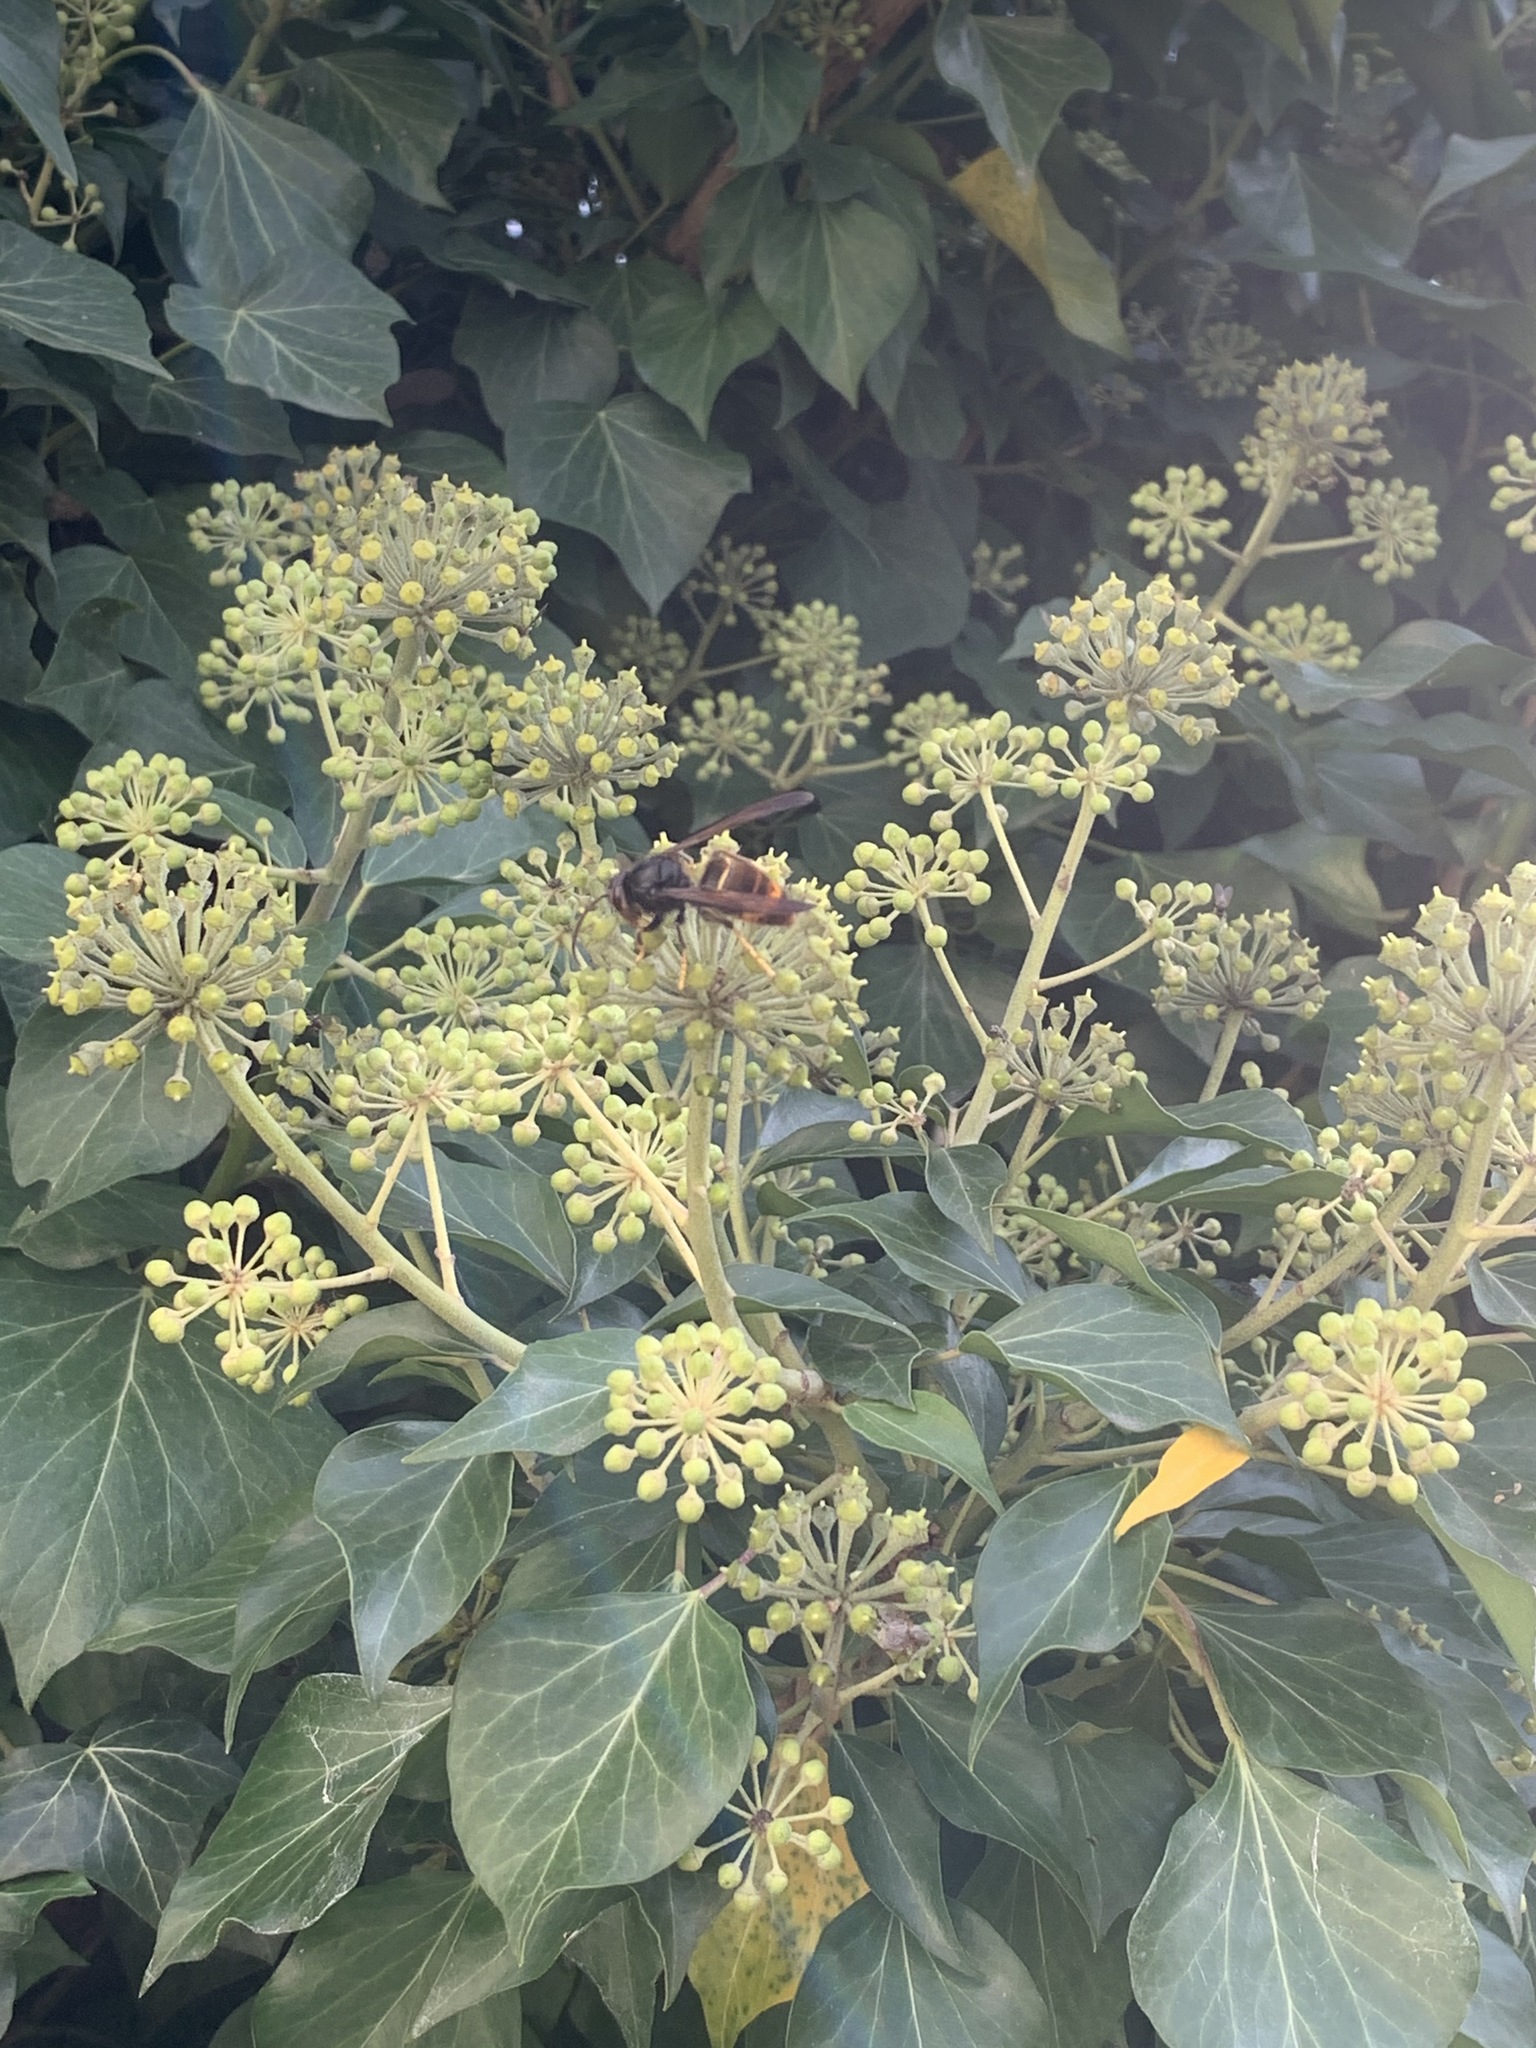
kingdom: Animalia
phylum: Arthropoda
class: Insecta
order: Hymenoptera
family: Vespidae
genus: Vespa
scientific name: Vespa velutina
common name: Asian hornet
